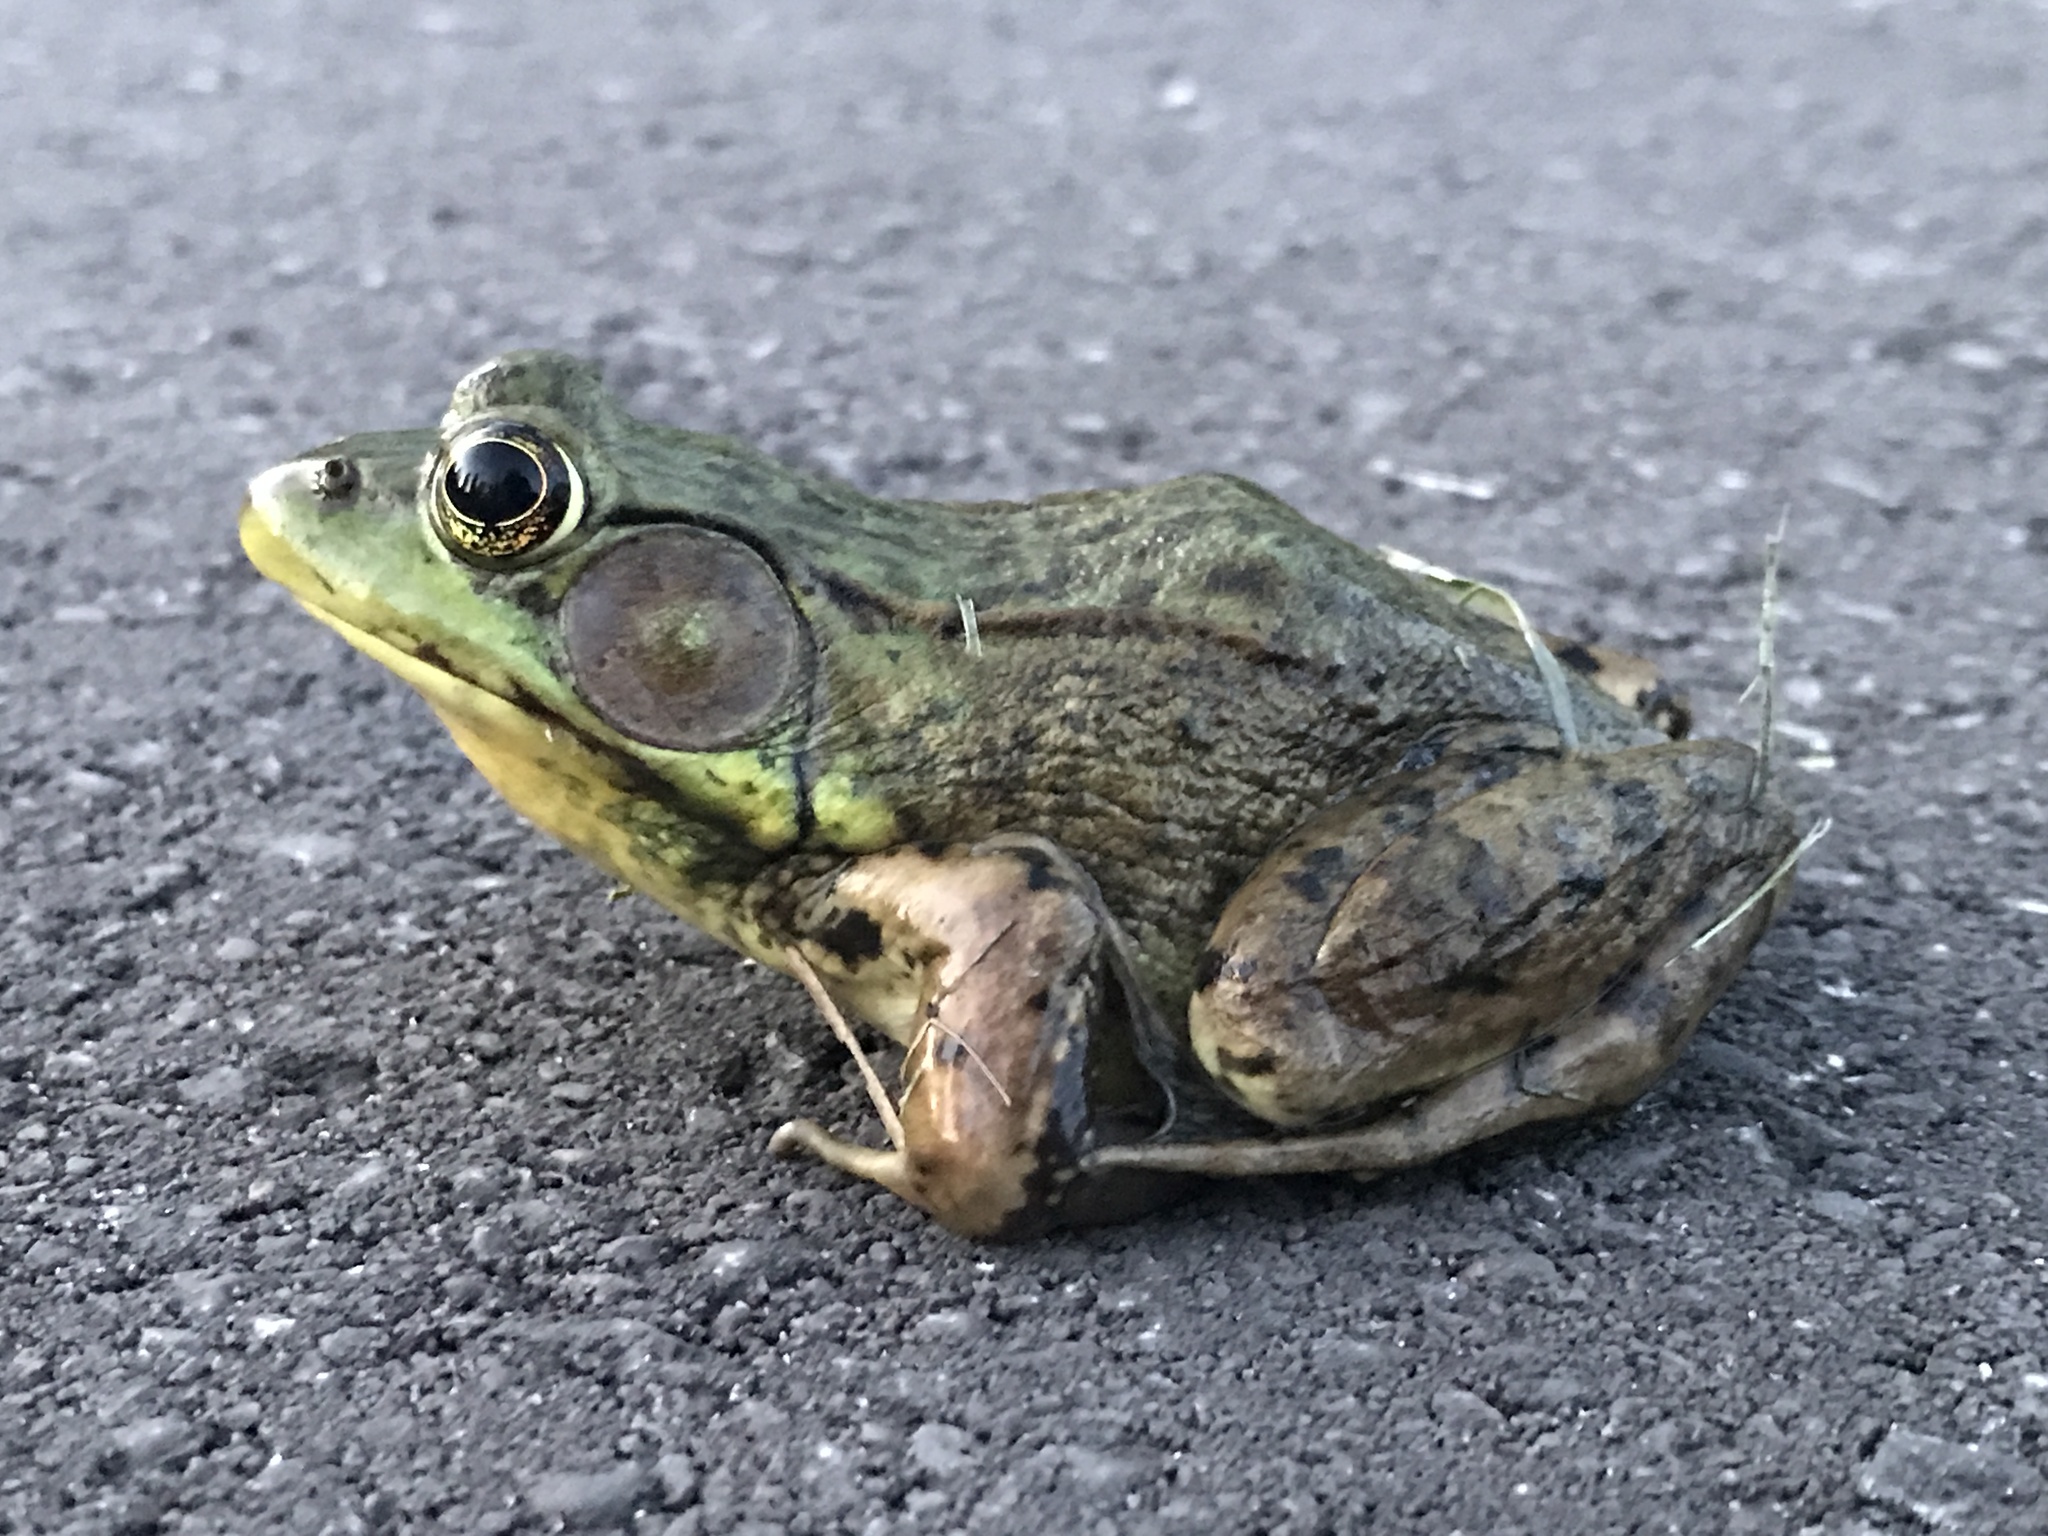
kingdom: Animalia
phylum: Chordata
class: Amphibia
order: Anura
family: Ranidae
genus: Lithobates
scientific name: Lithobates clamitans
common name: Green frog
